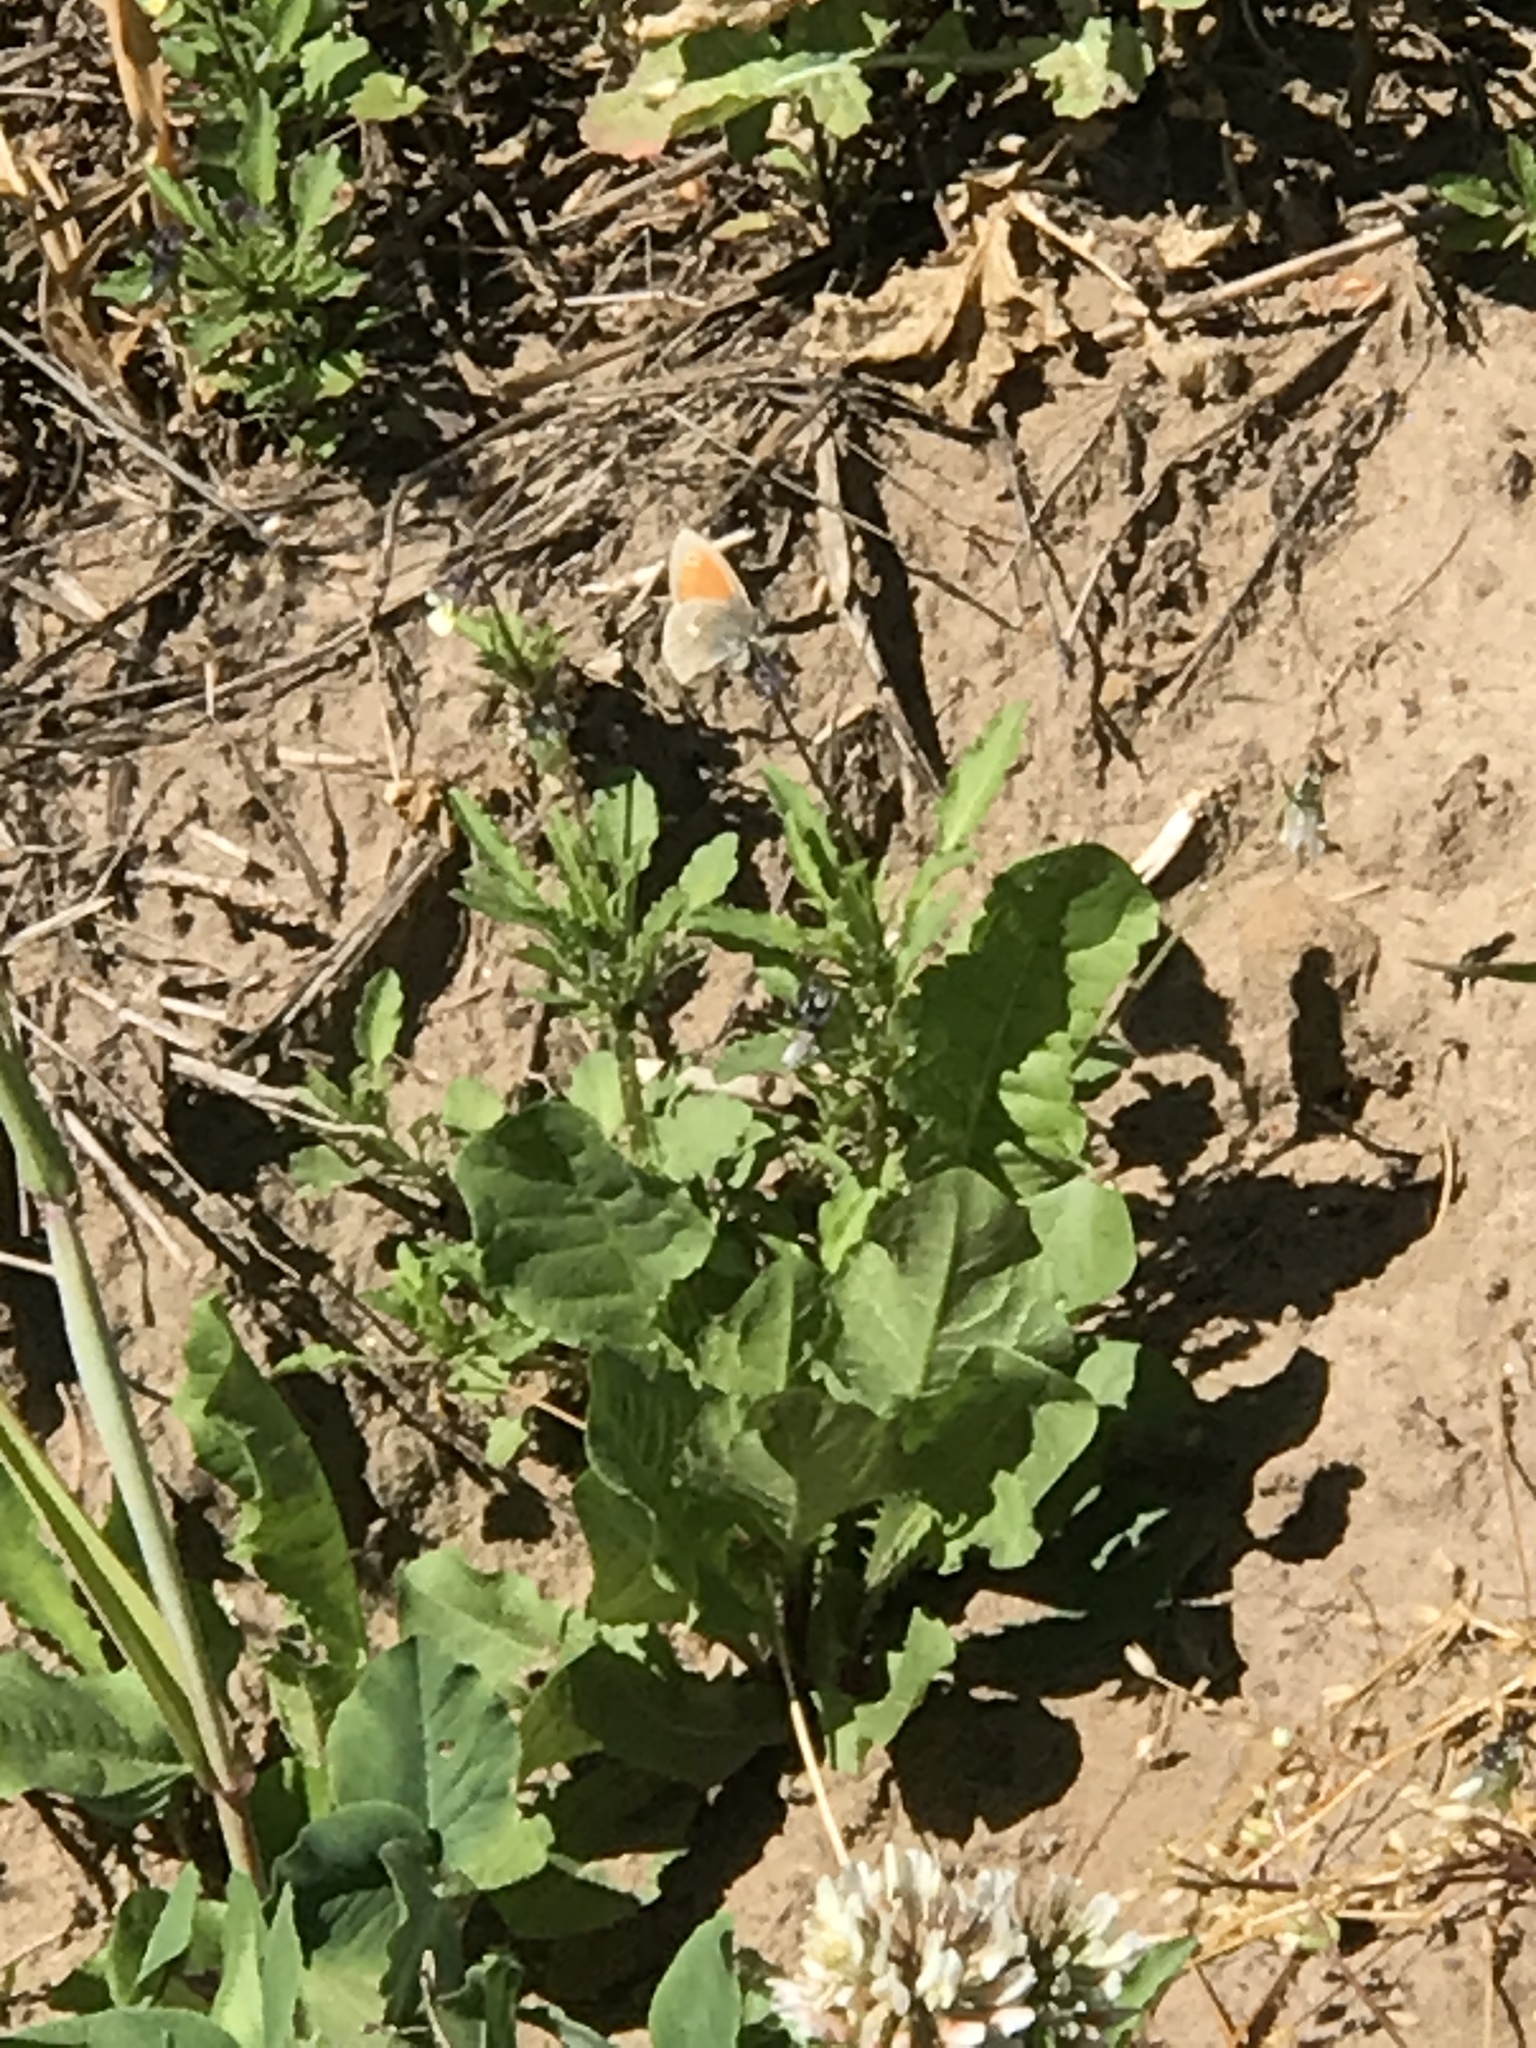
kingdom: Animalia
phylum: Arthropoda
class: Insecta
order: Lepidoptera
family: Nymphalidae
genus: Coenonympha
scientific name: Coenonympha pamphilus
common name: Small heath
